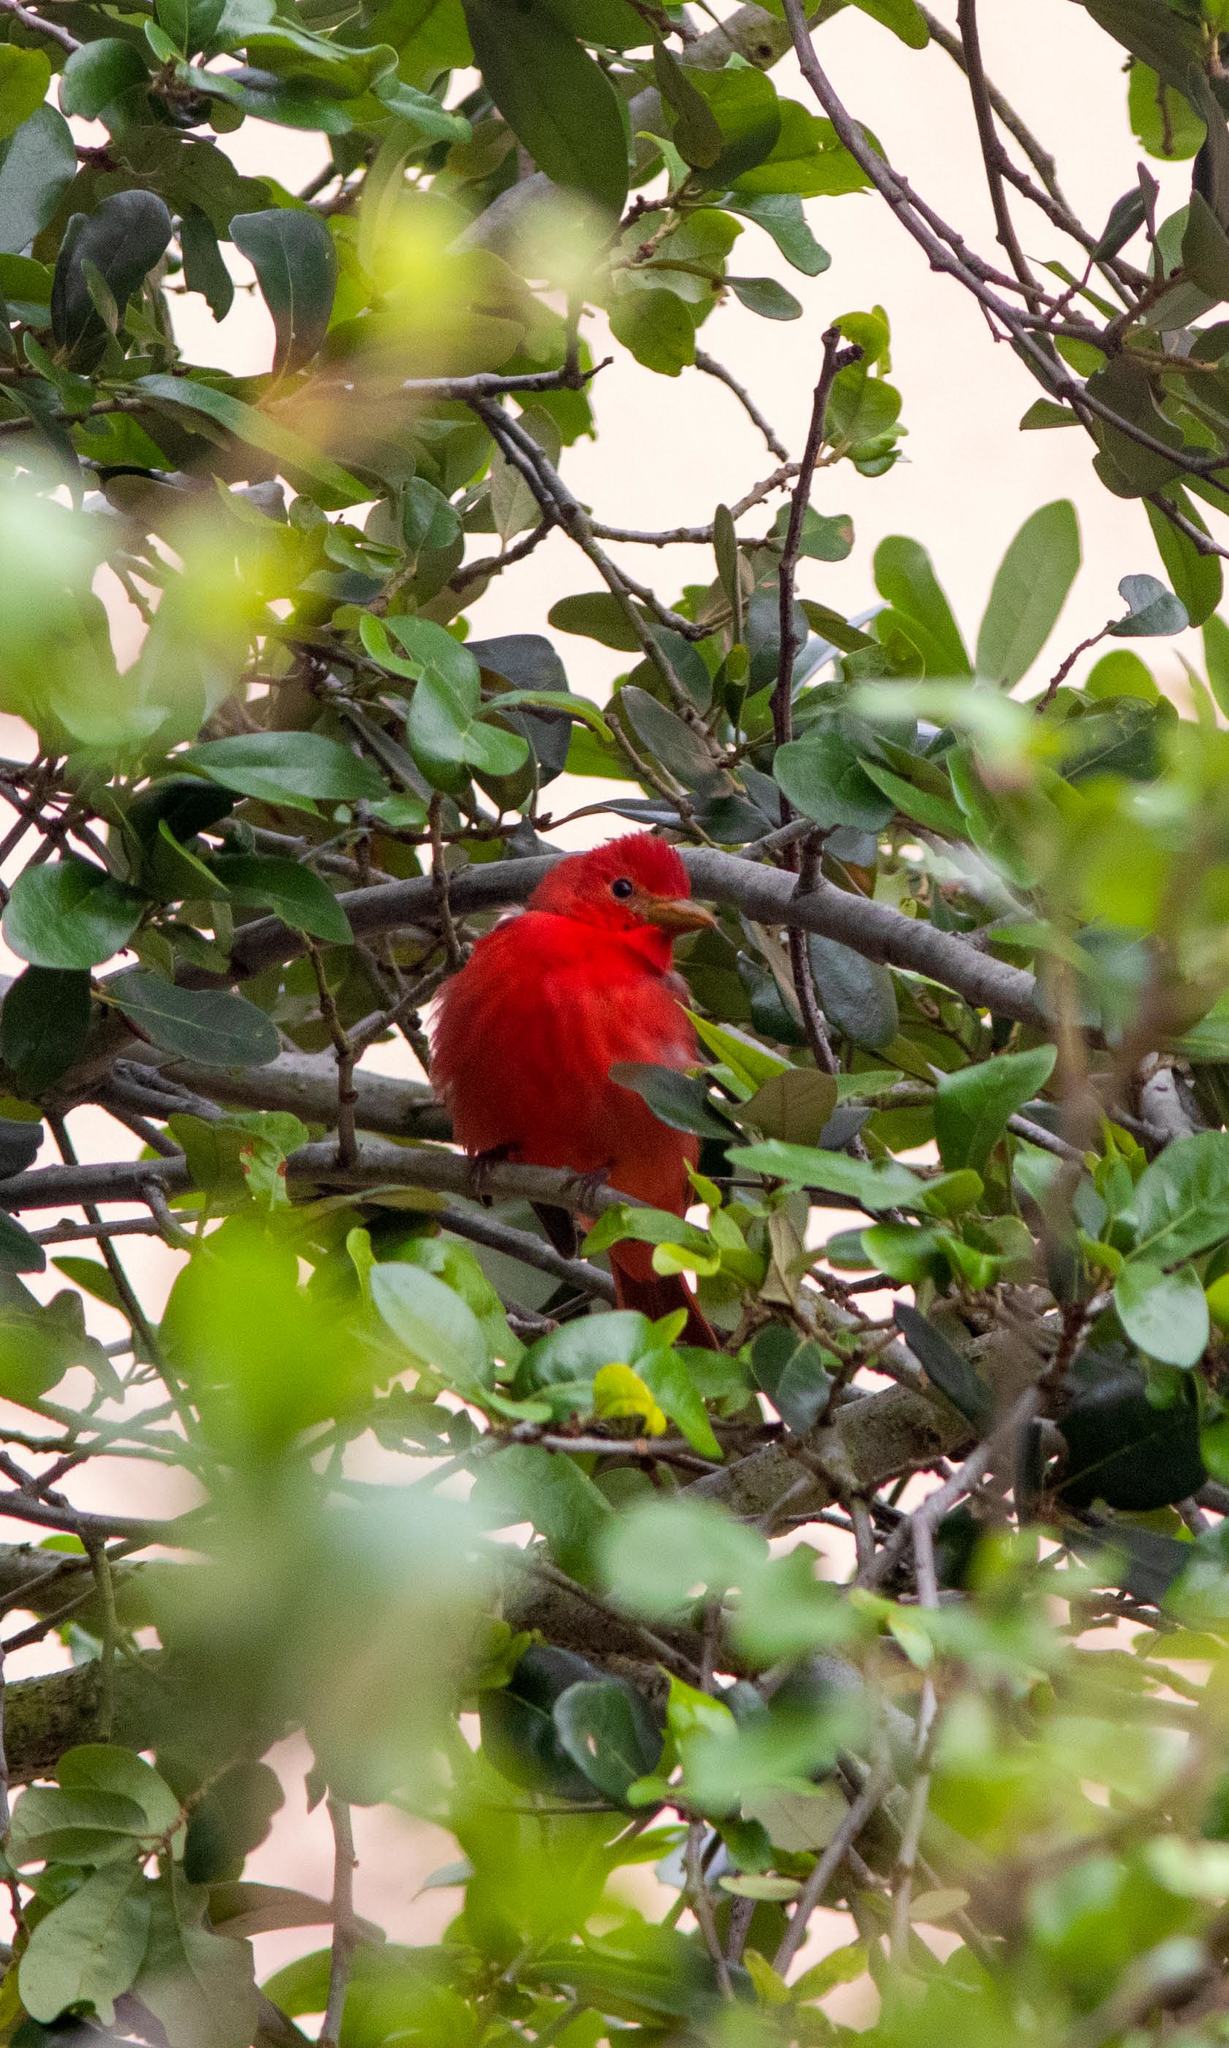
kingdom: Animalia
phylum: Chordata
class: Aves
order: Passeriformes
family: Cardinalidae
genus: Piranga
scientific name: Piranga rubra
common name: Summer tanager
